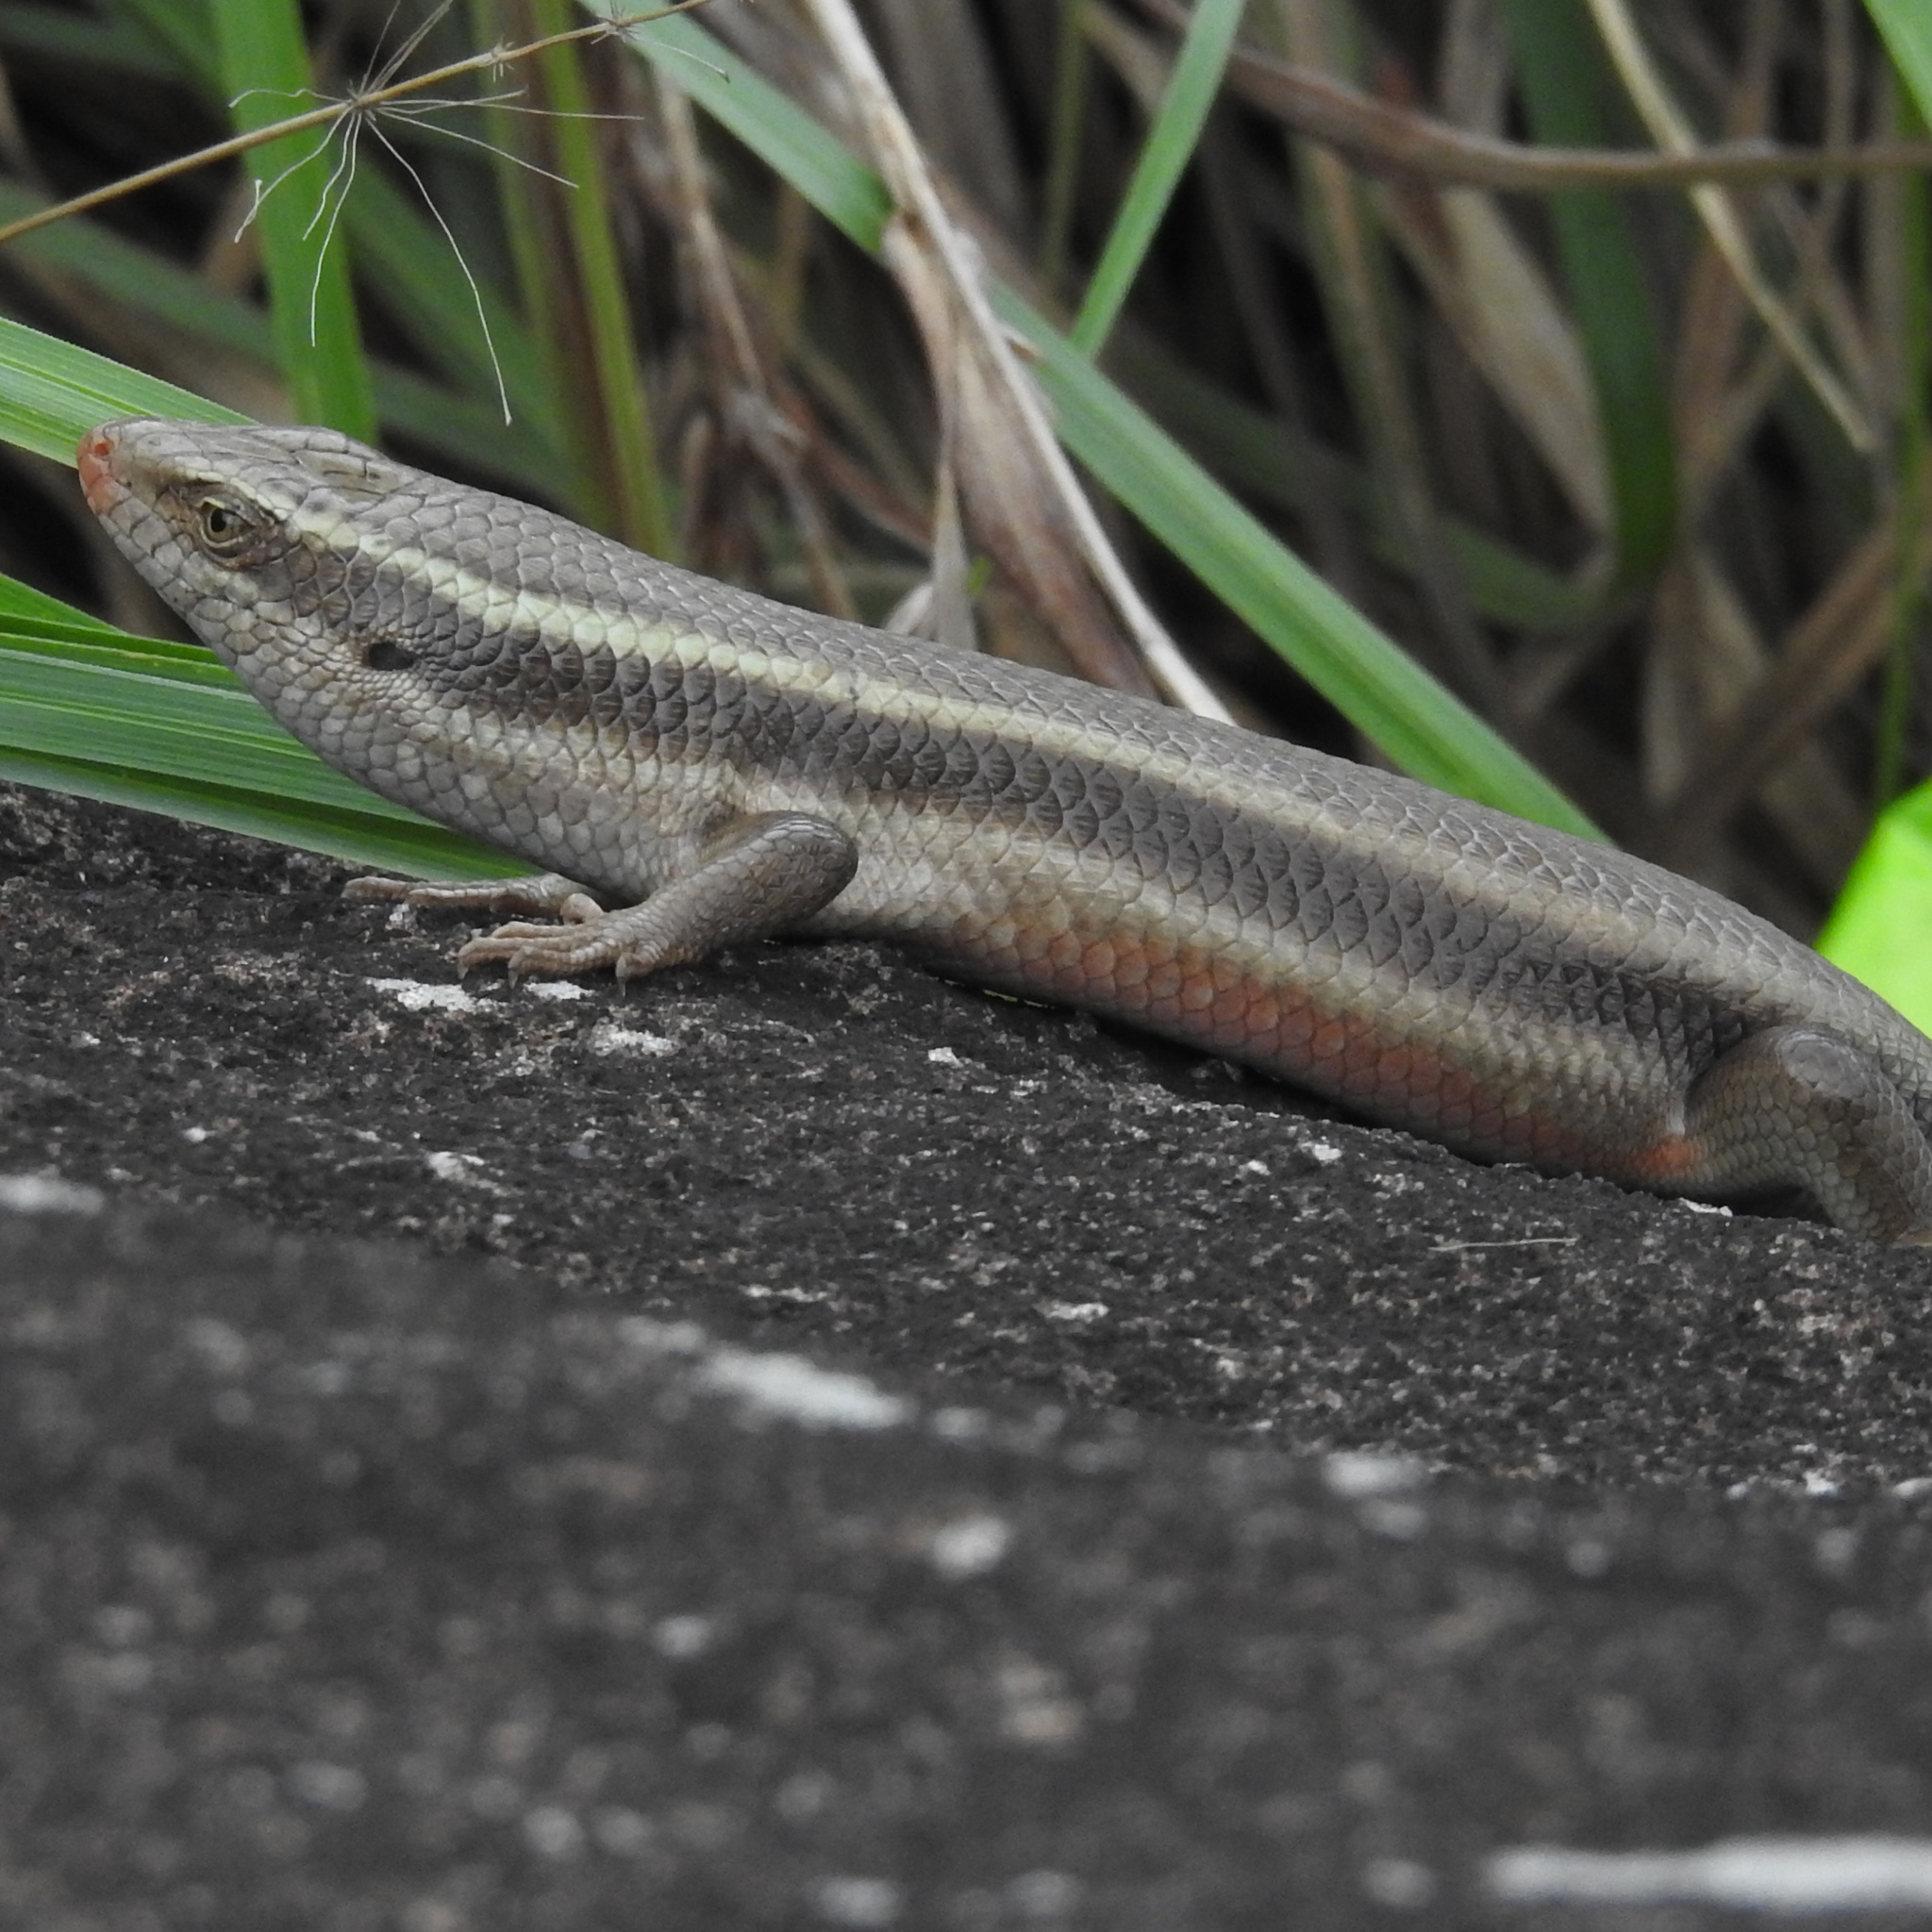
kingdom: Animalia
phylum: Chordata
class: Squamata
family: Scincidae
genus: Eutropis
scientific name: Eutropis carinata
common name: Keeled indian mabuya
